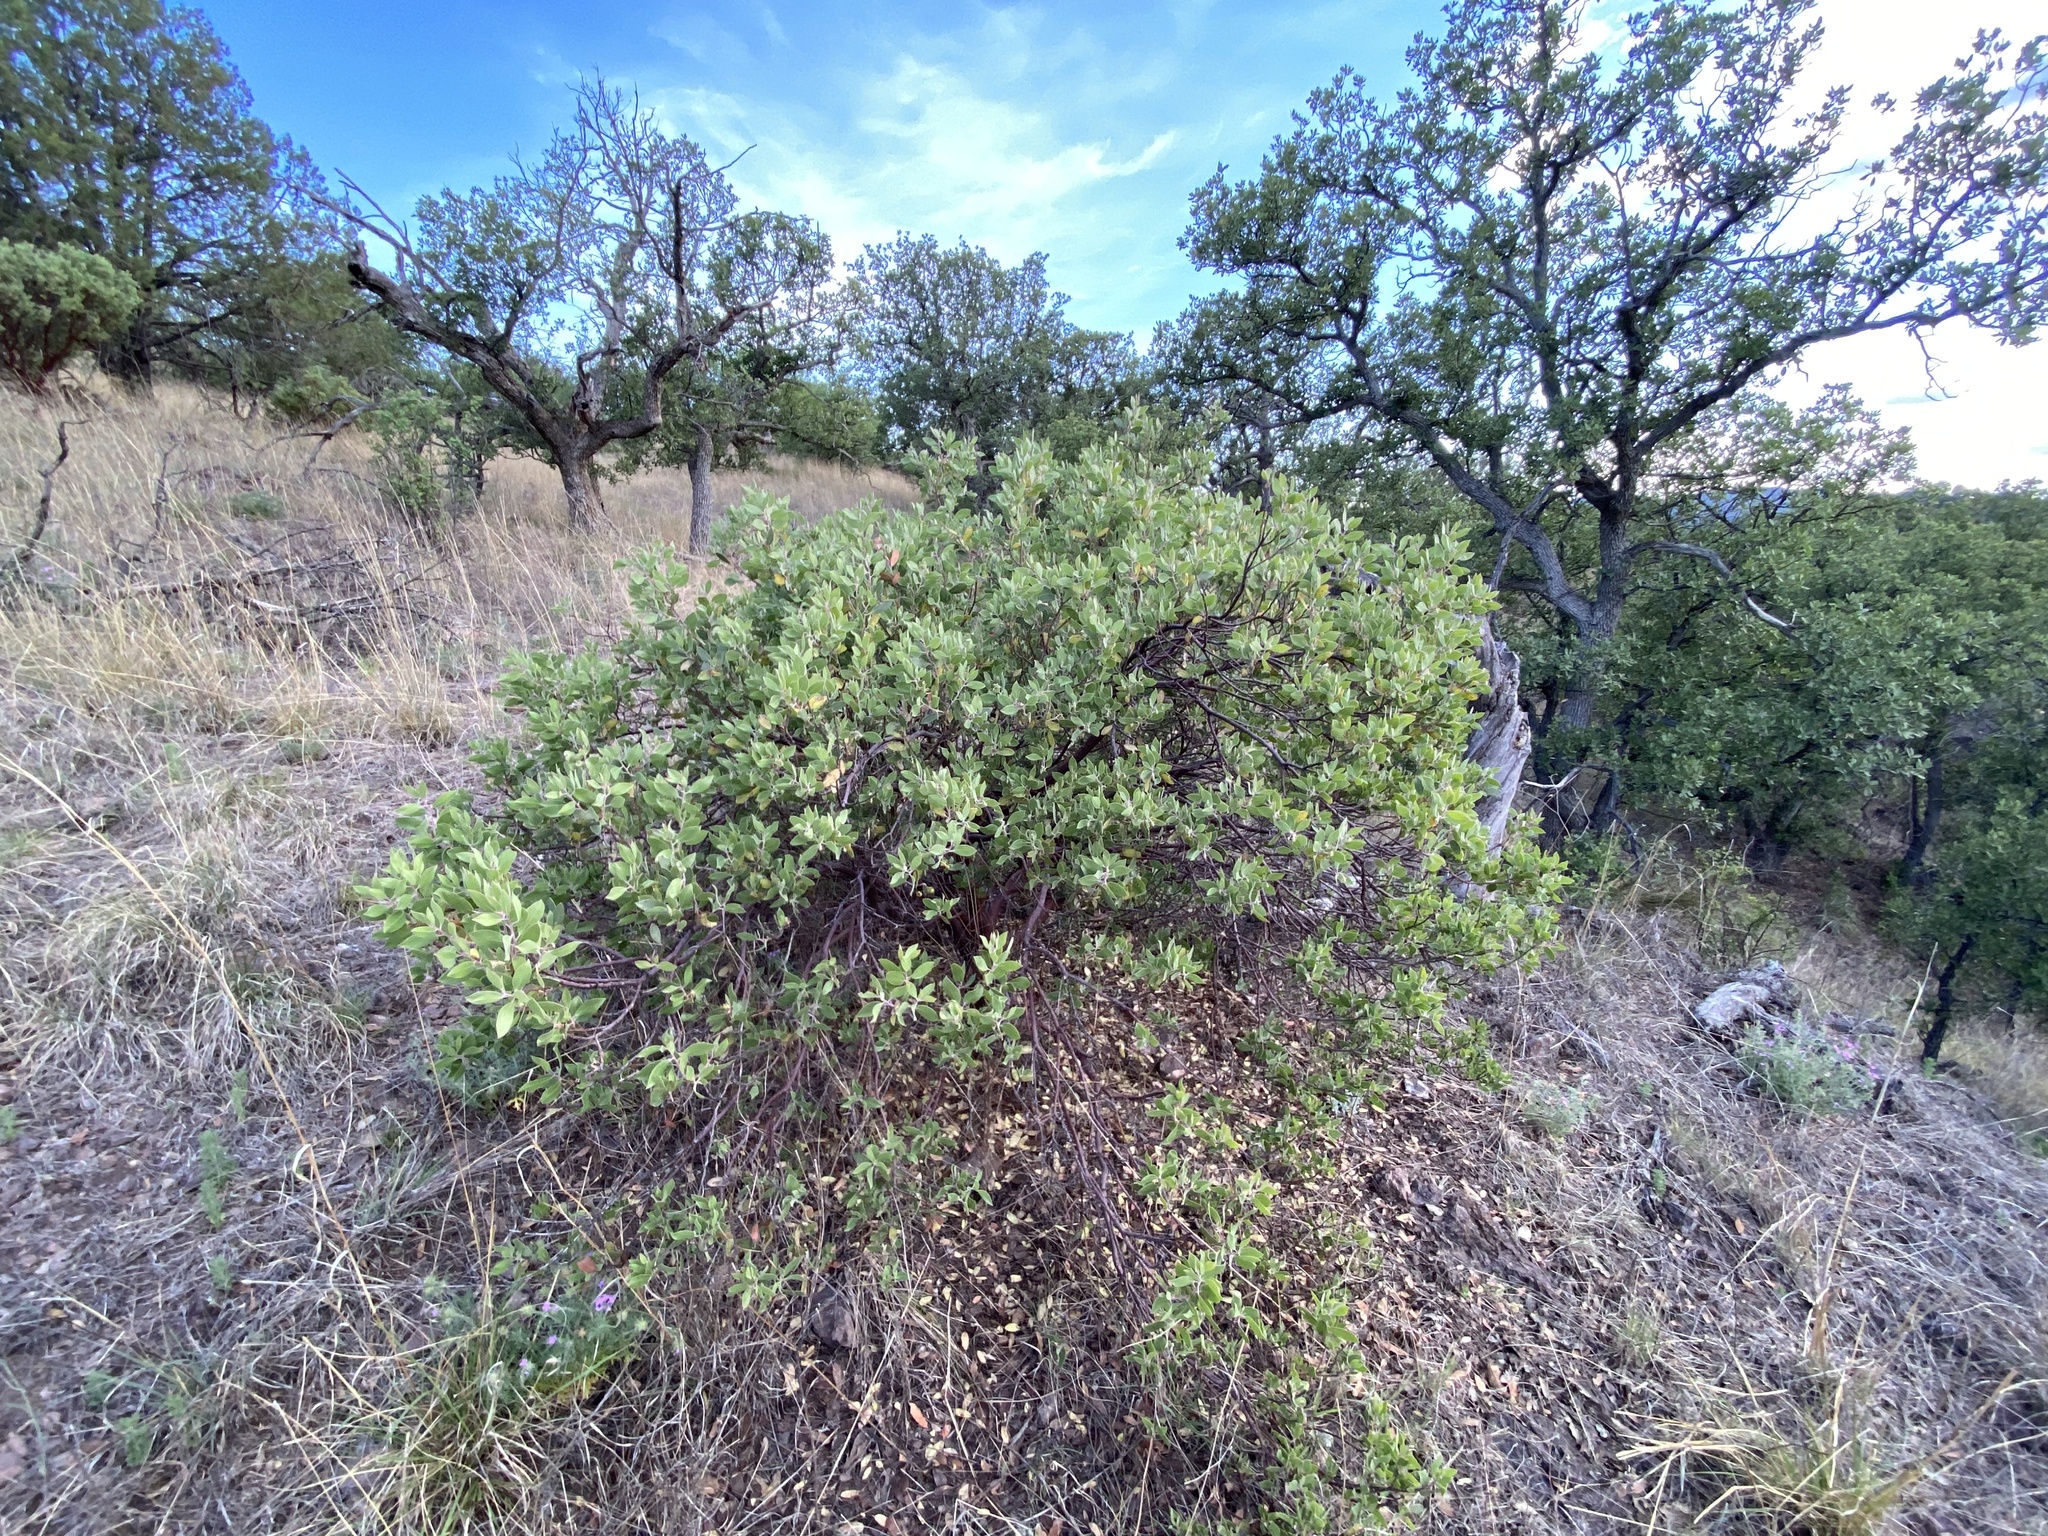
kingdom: Plantae
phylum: Tracheophyta
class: Magnoliopsida
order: Ericales
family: Ericaceae
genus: Arctostaphylos
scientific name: Arctostaphylos pungens
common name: Mexican manzanita
